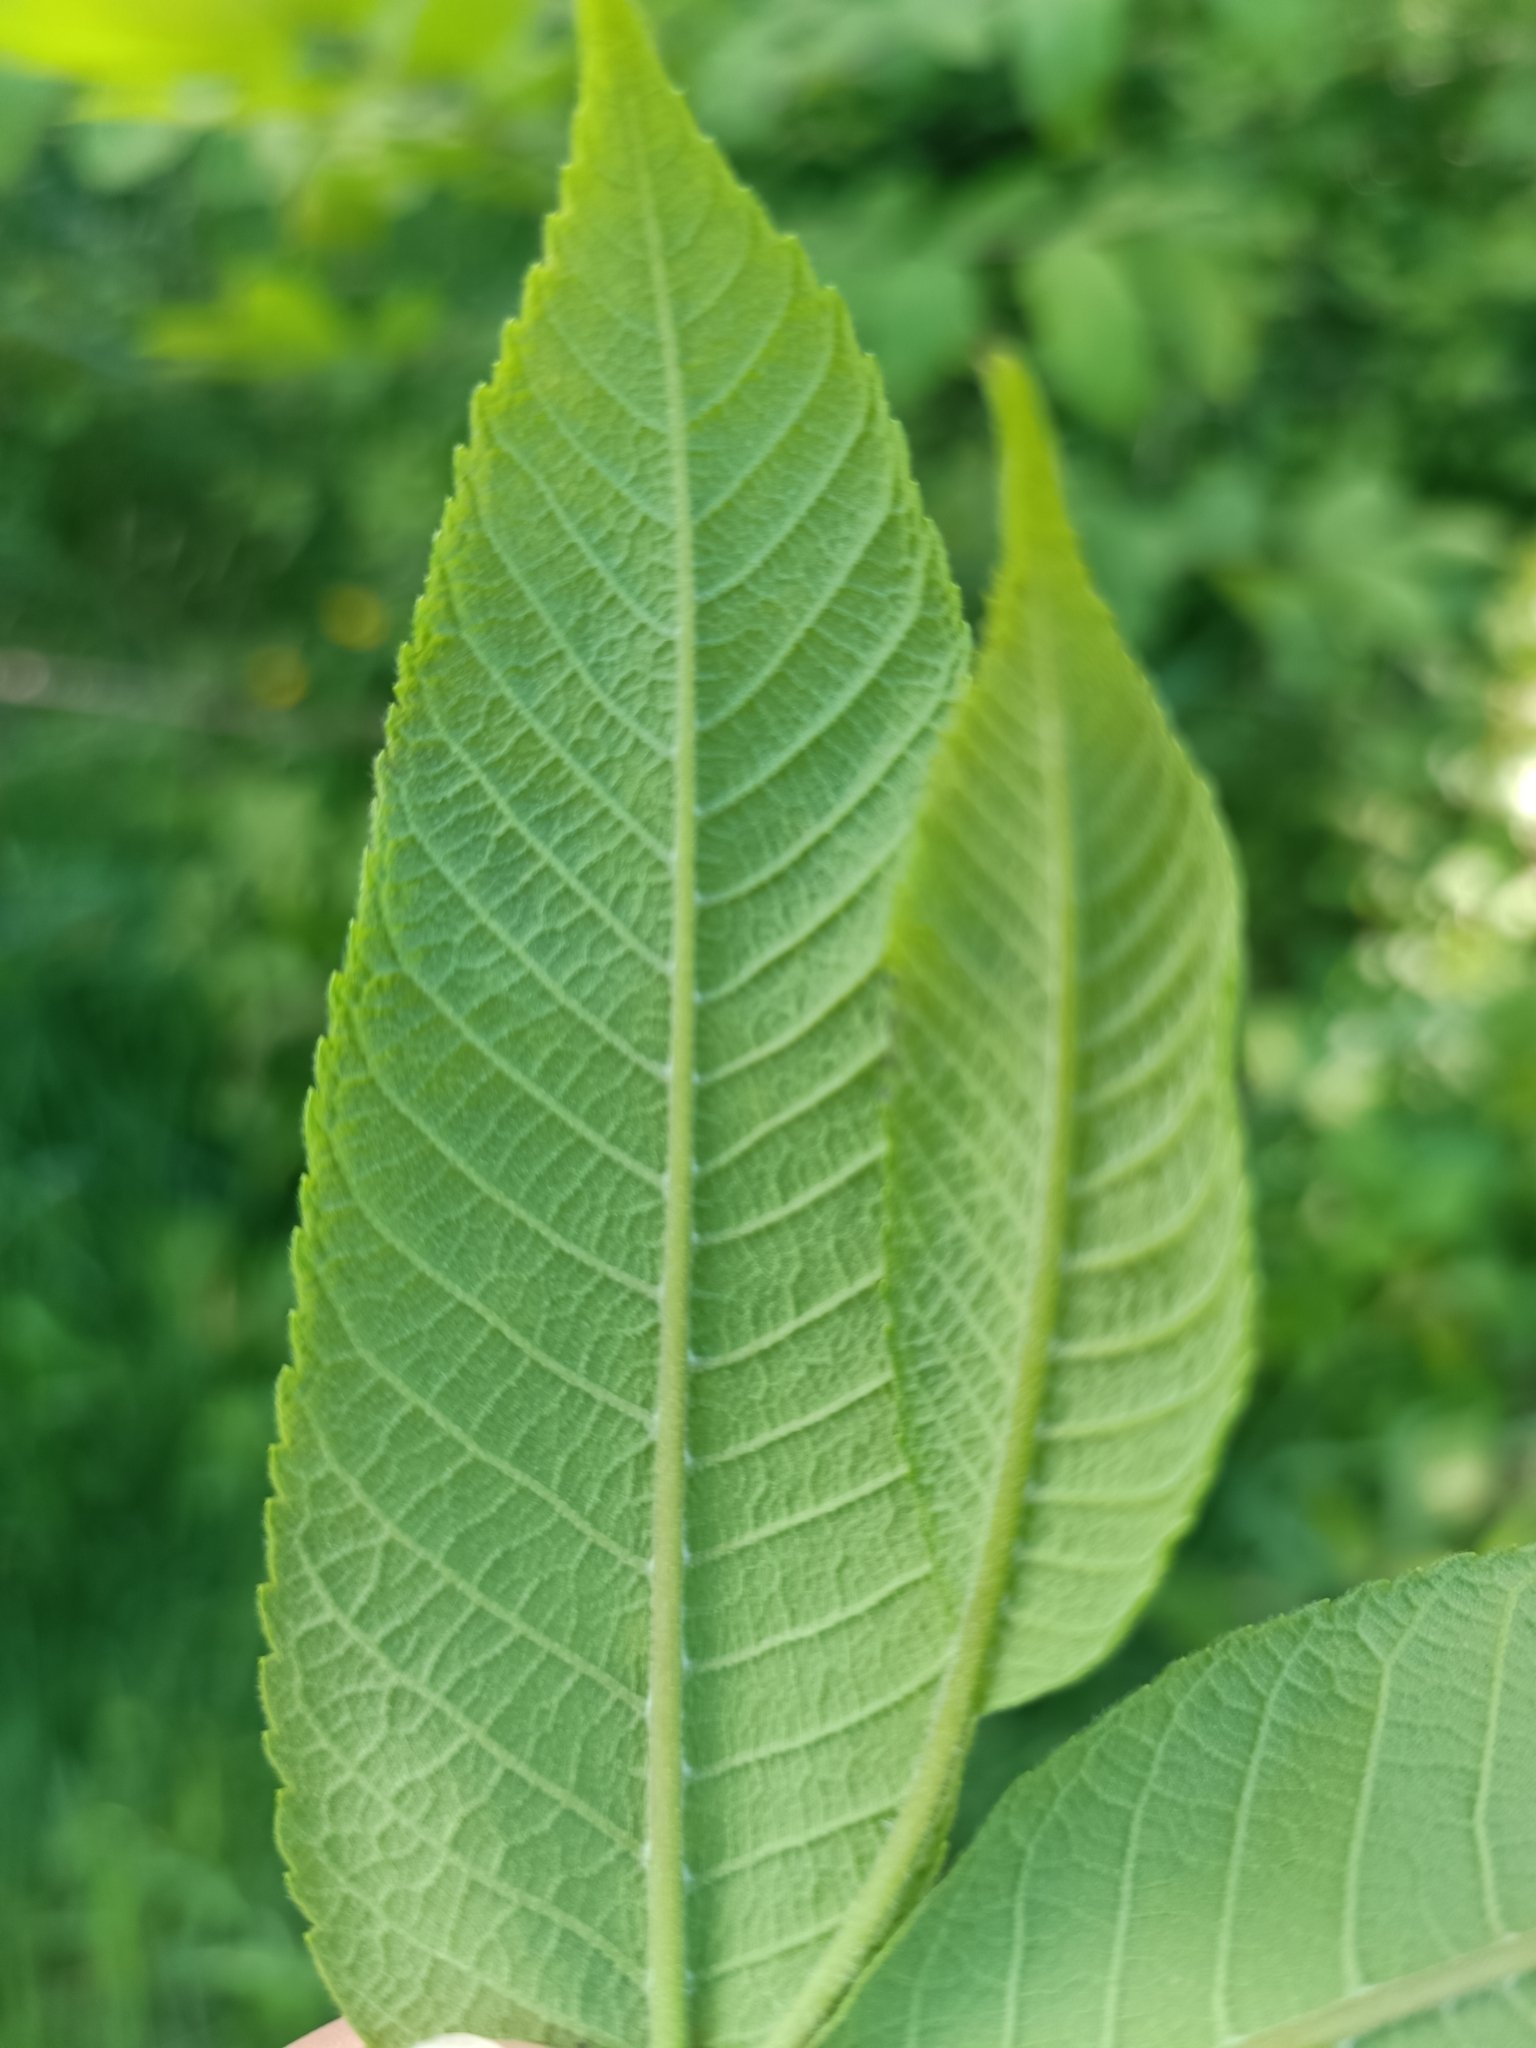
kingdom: Plantae
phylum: Tracheophyta
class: Magnoliopsida
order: Fagales
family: Juglandaceae
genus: Juglans
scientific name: Juglans ailantifolia
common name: Japanese walnut
